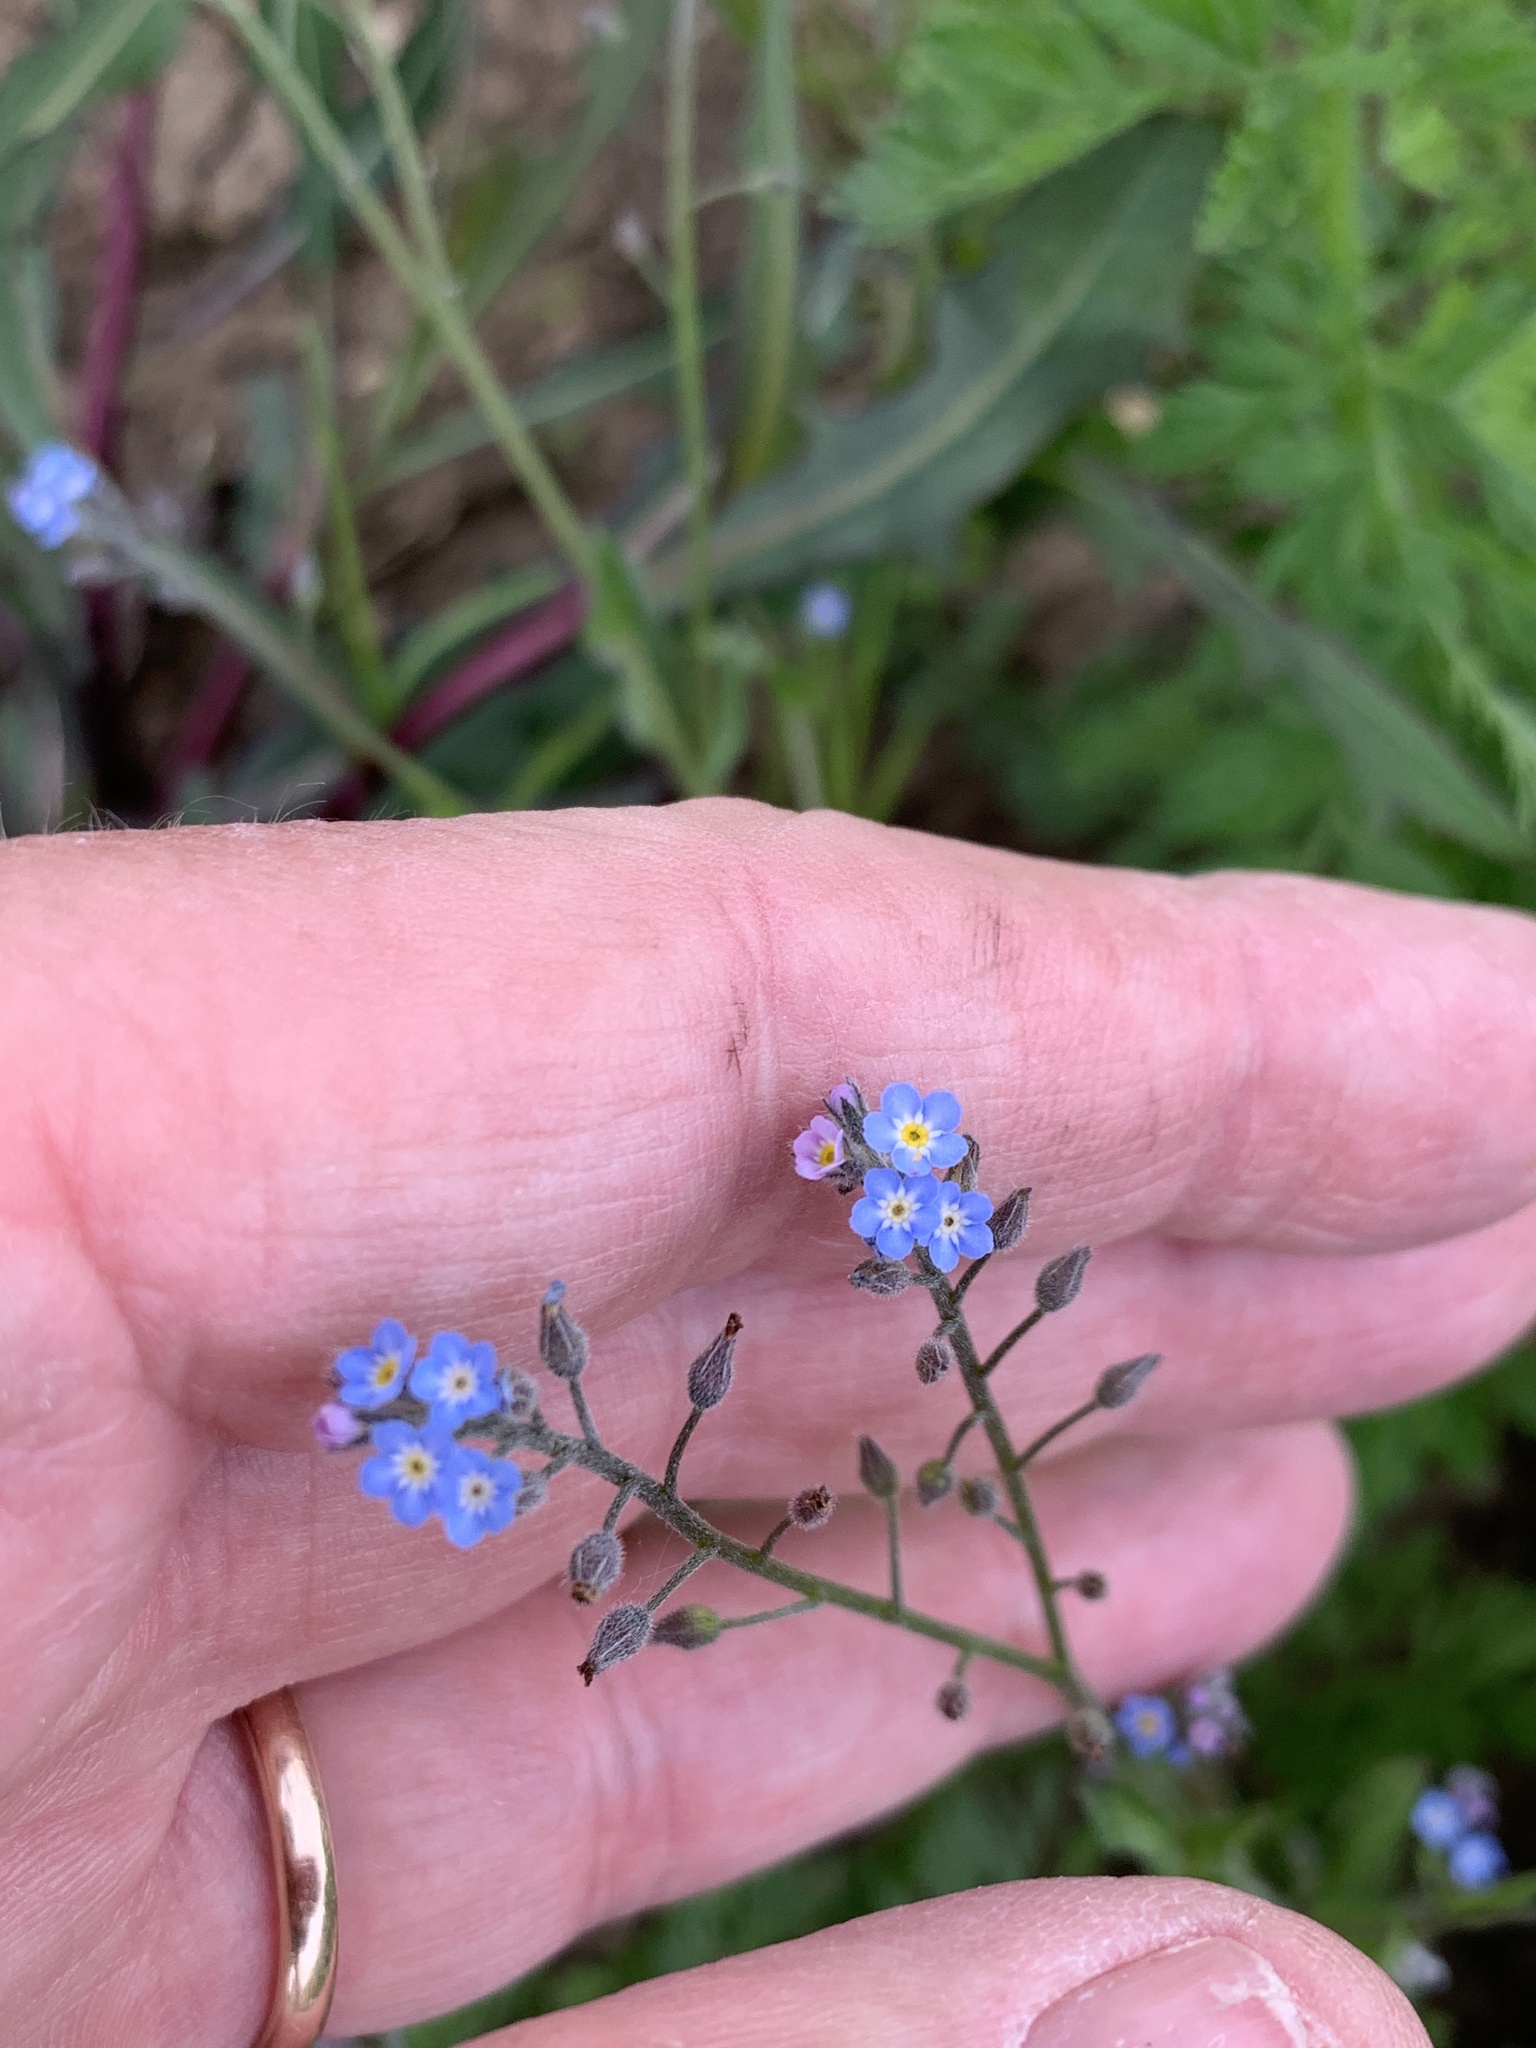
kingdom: Plantae
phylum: Tracheophyta
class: Magnoliopsida
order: Boraginales
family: Boraginaceae
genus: Myosotis
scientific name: Myosotis arvensis
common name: Field forget-me-not
